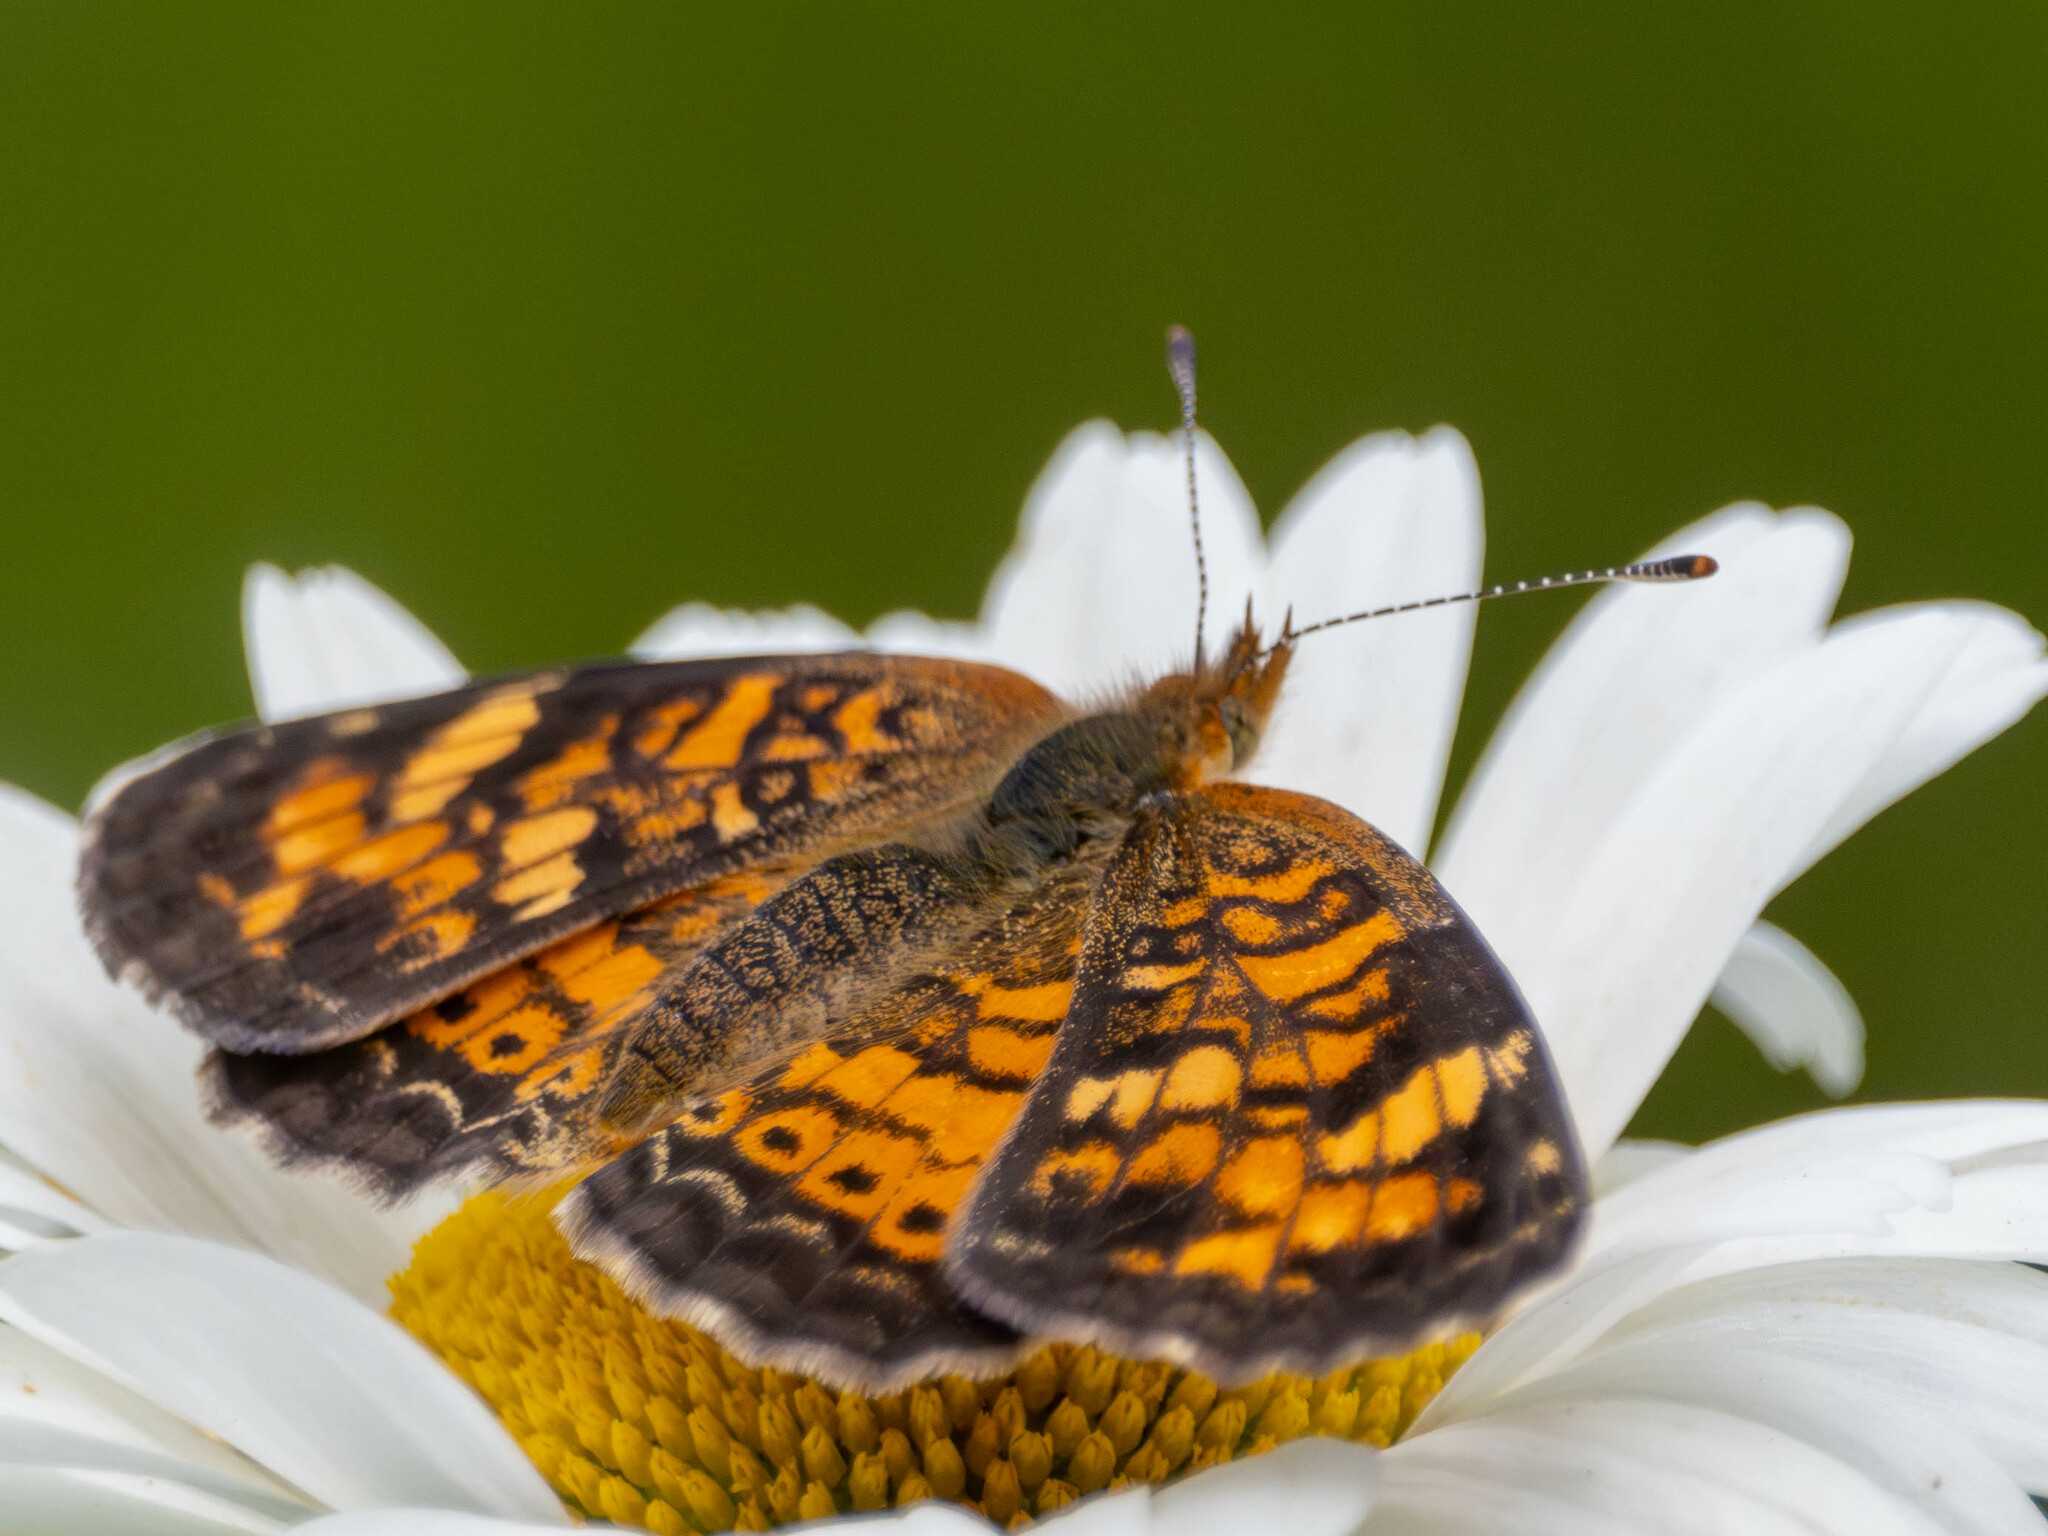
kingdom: Animalia
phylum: Arthropoda
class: Insecta
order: Lepidoptera
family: Nymphalidae
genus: Phyciodes
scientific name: Phyciodes tharos
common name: Pearl crescent
